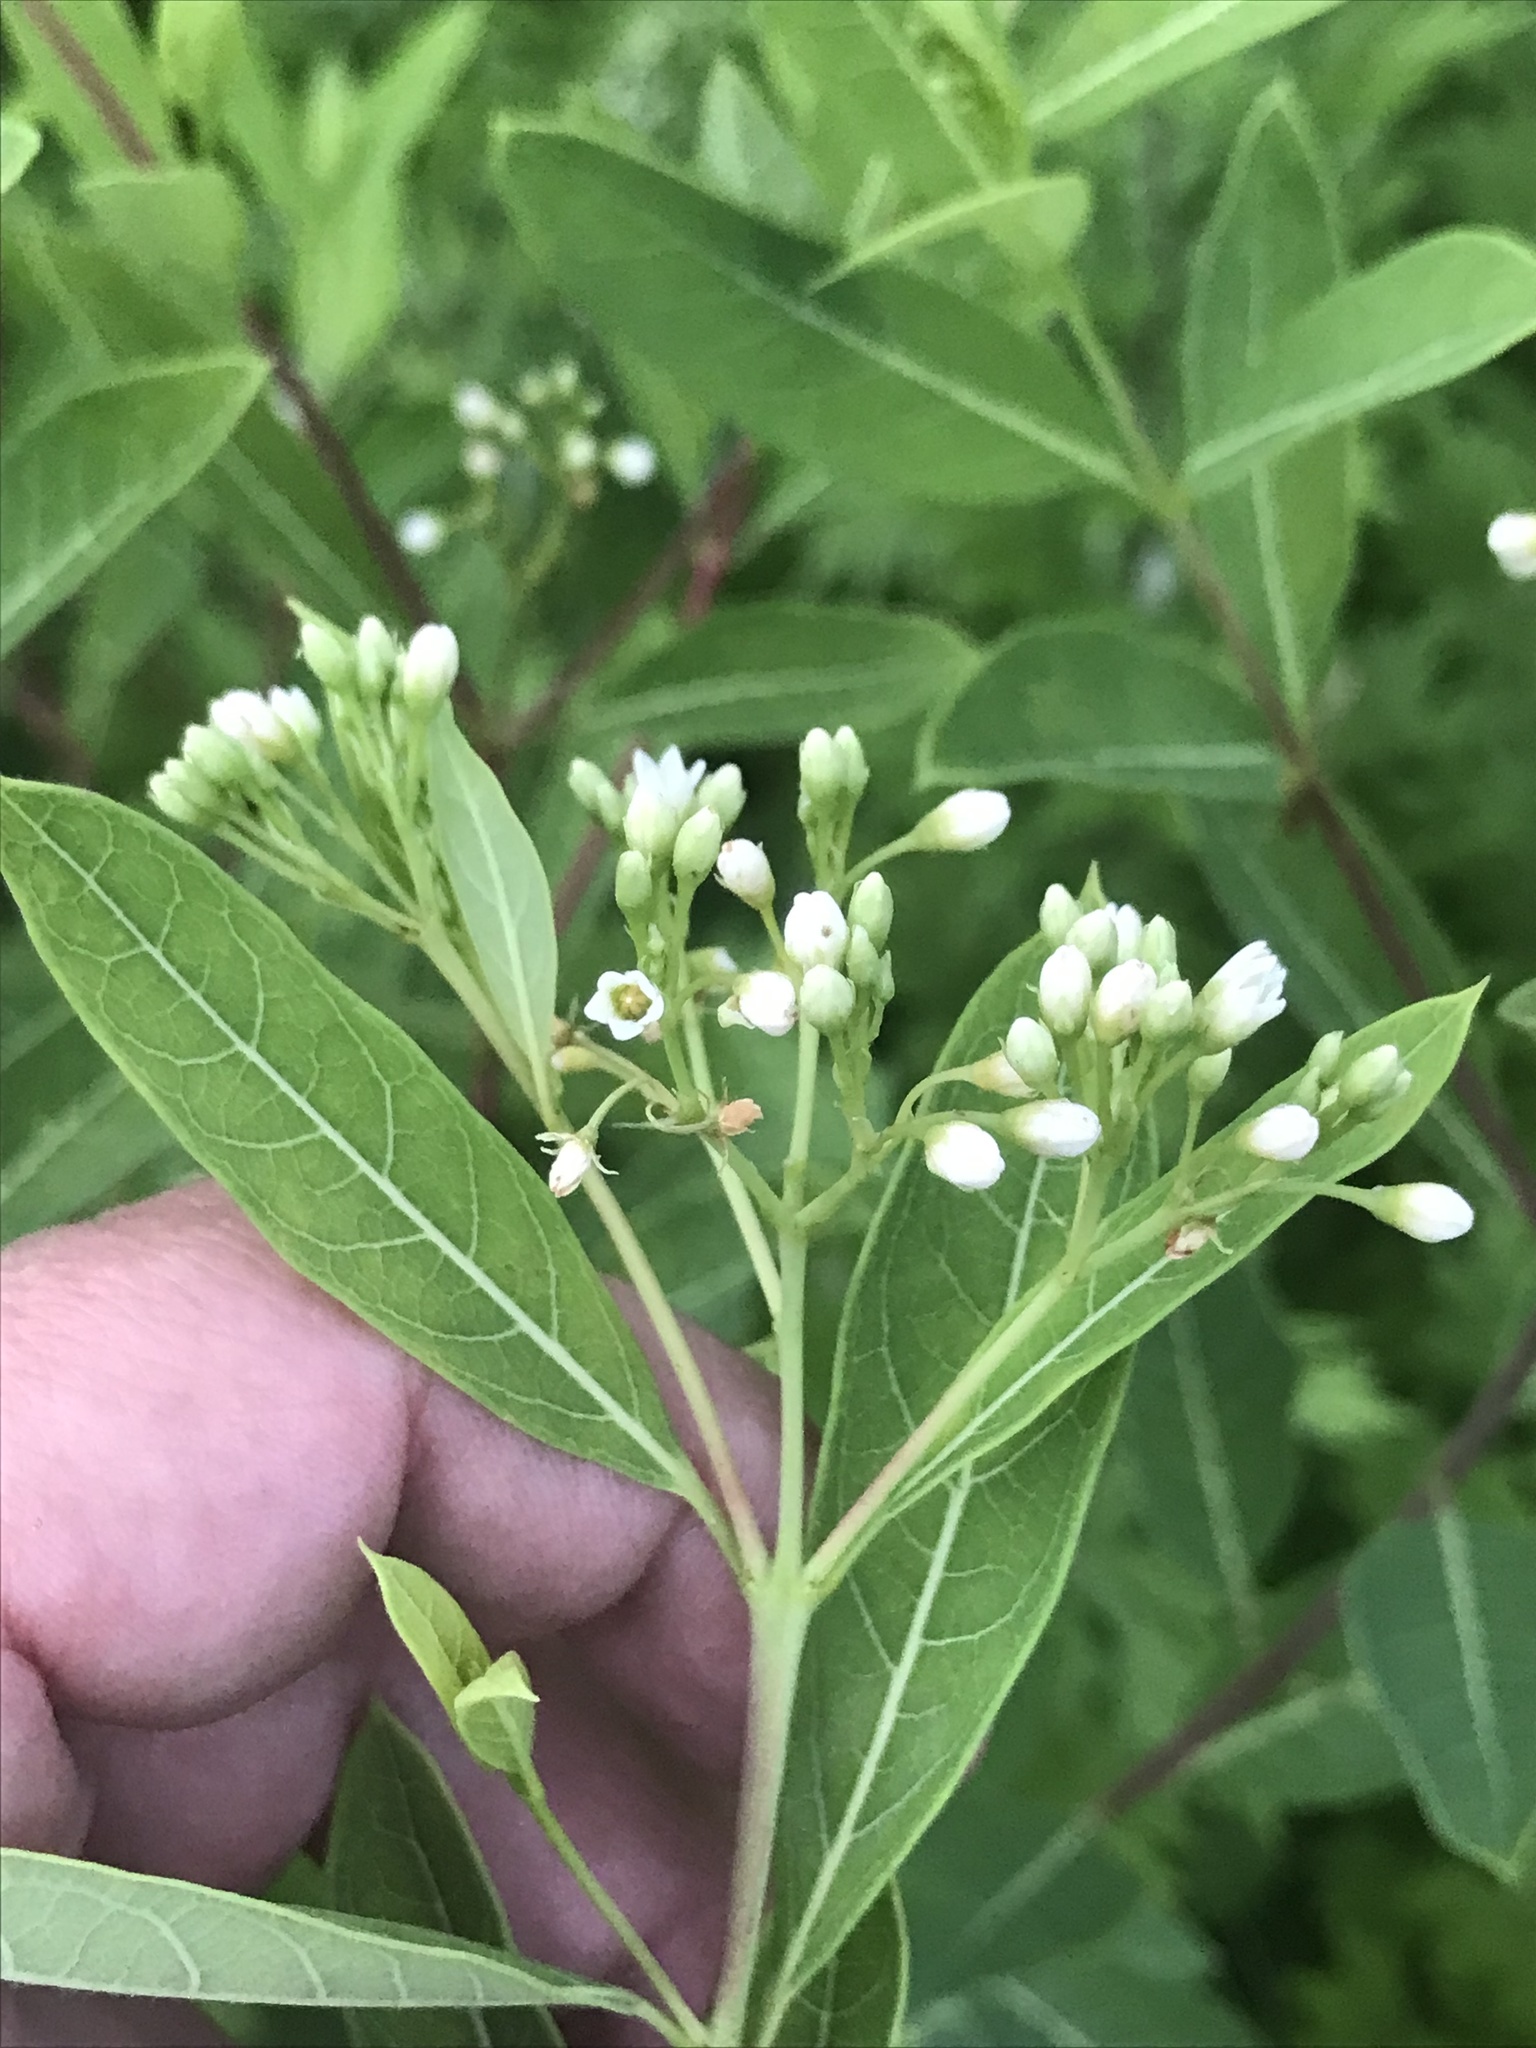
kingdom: Plantae
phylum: Tracheophyta
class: Magnoliopsida
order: Gentianales
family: Apocynaceae
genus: Apocynum
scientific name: Apocynum cannabinum
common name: Hemp dogbane
